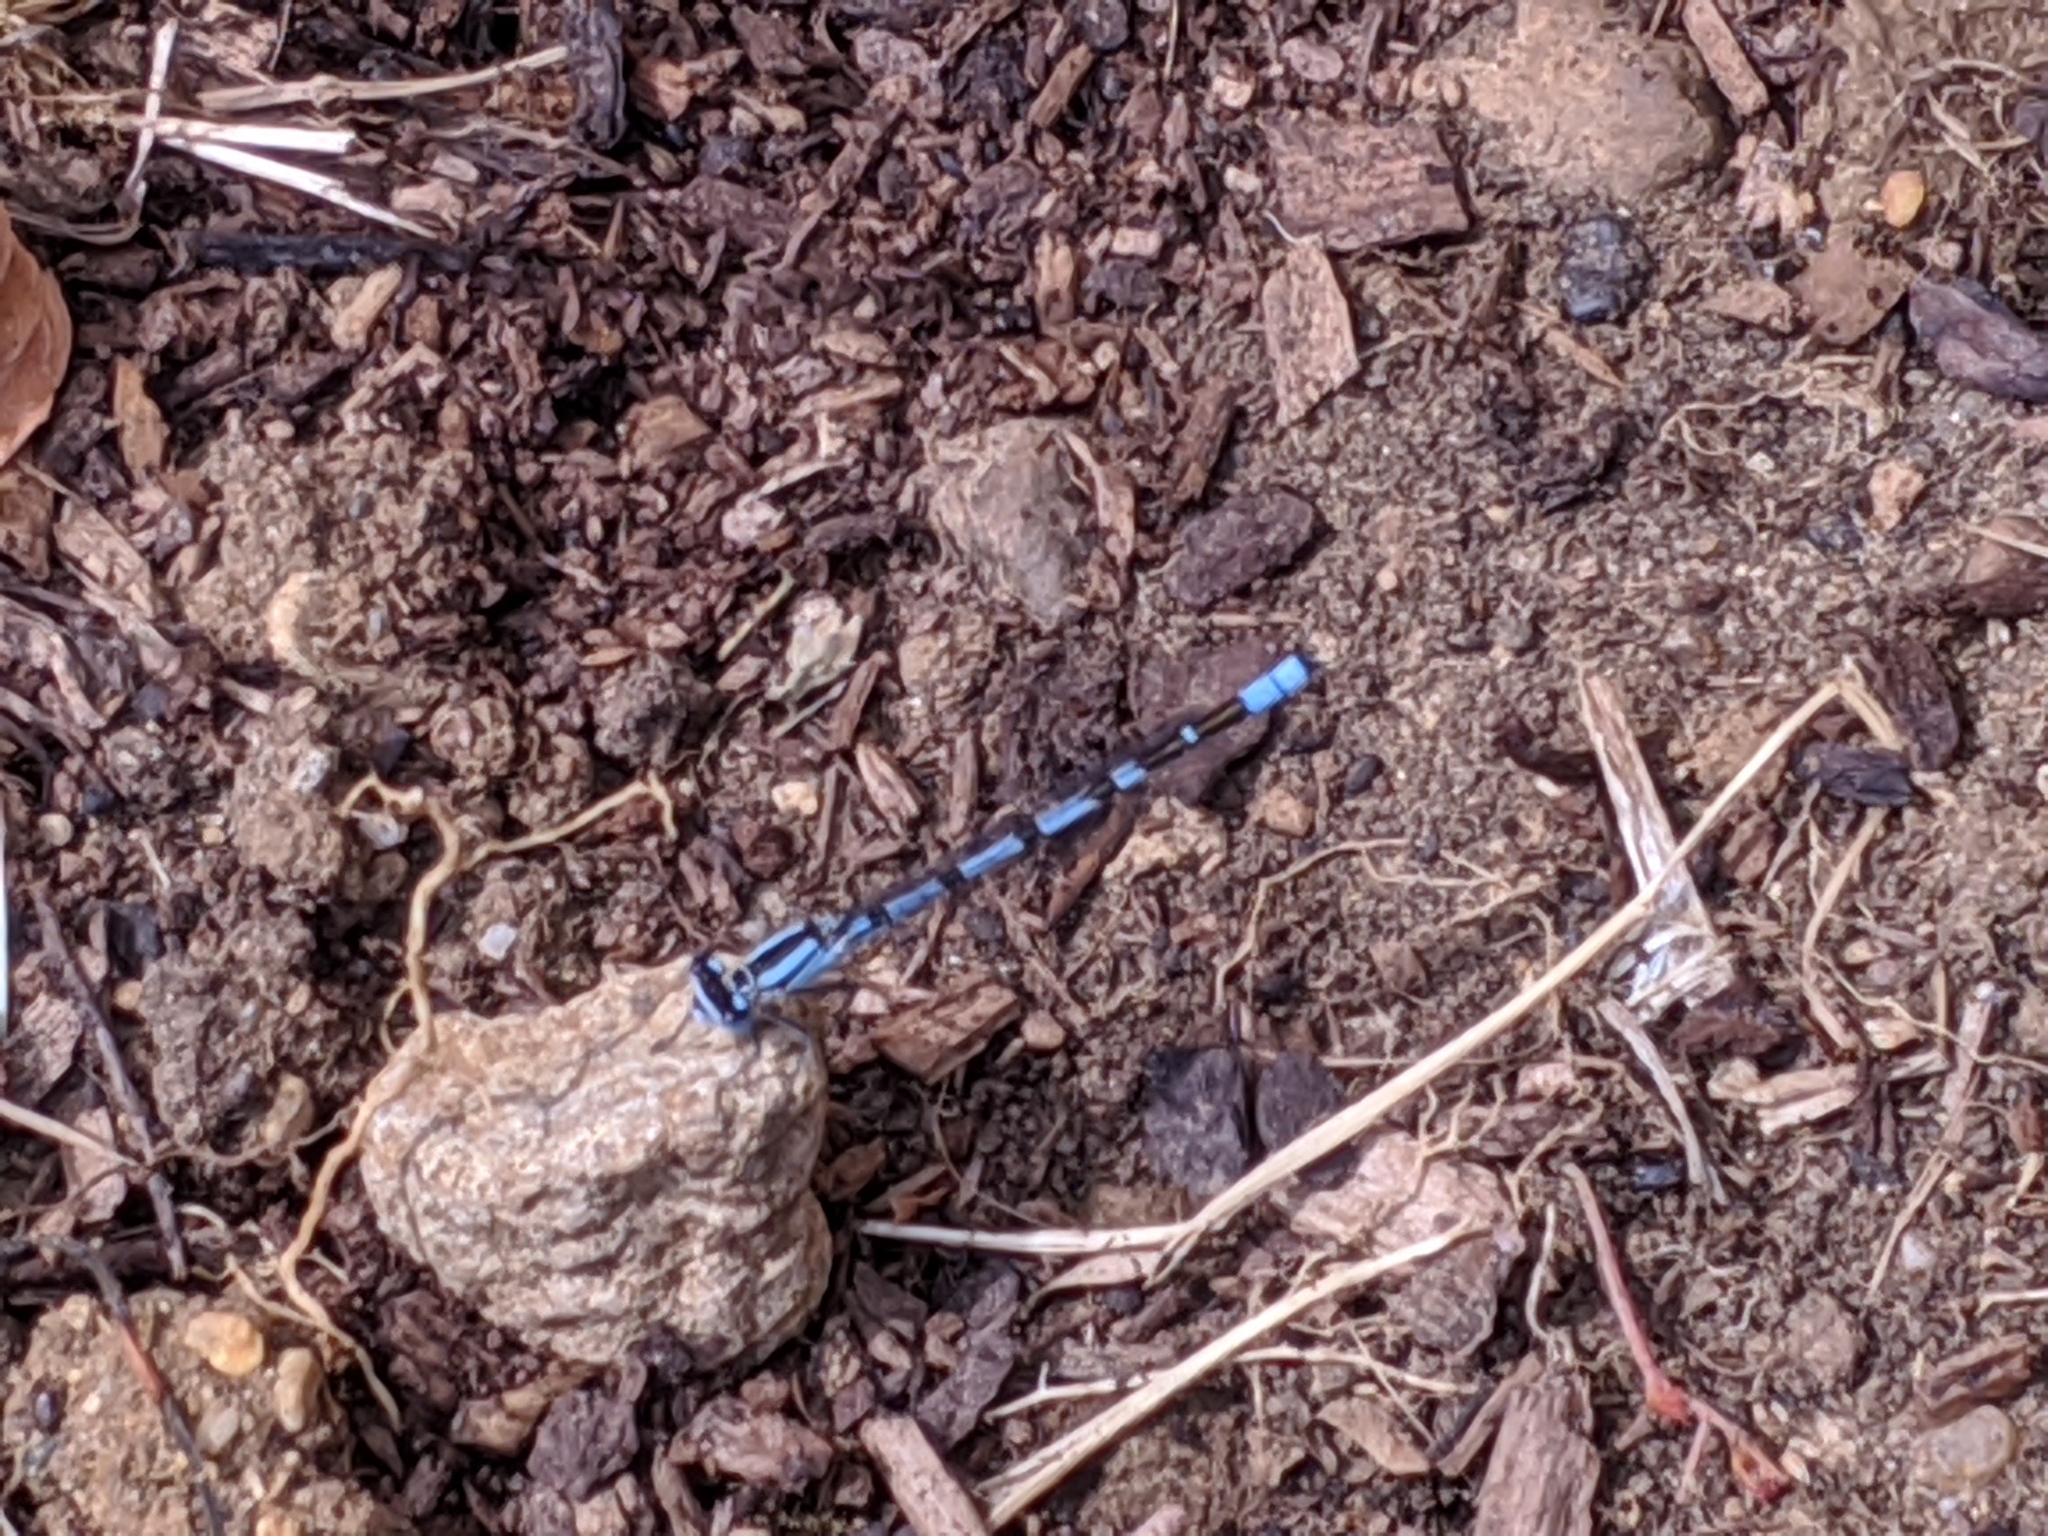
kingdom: Animalia
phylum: Arthropoda
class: Insecta
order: Odonata
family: Coenagrionidae
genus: Enallagma
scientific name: Enallagma cyathigerum
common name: Common blue damselfly
